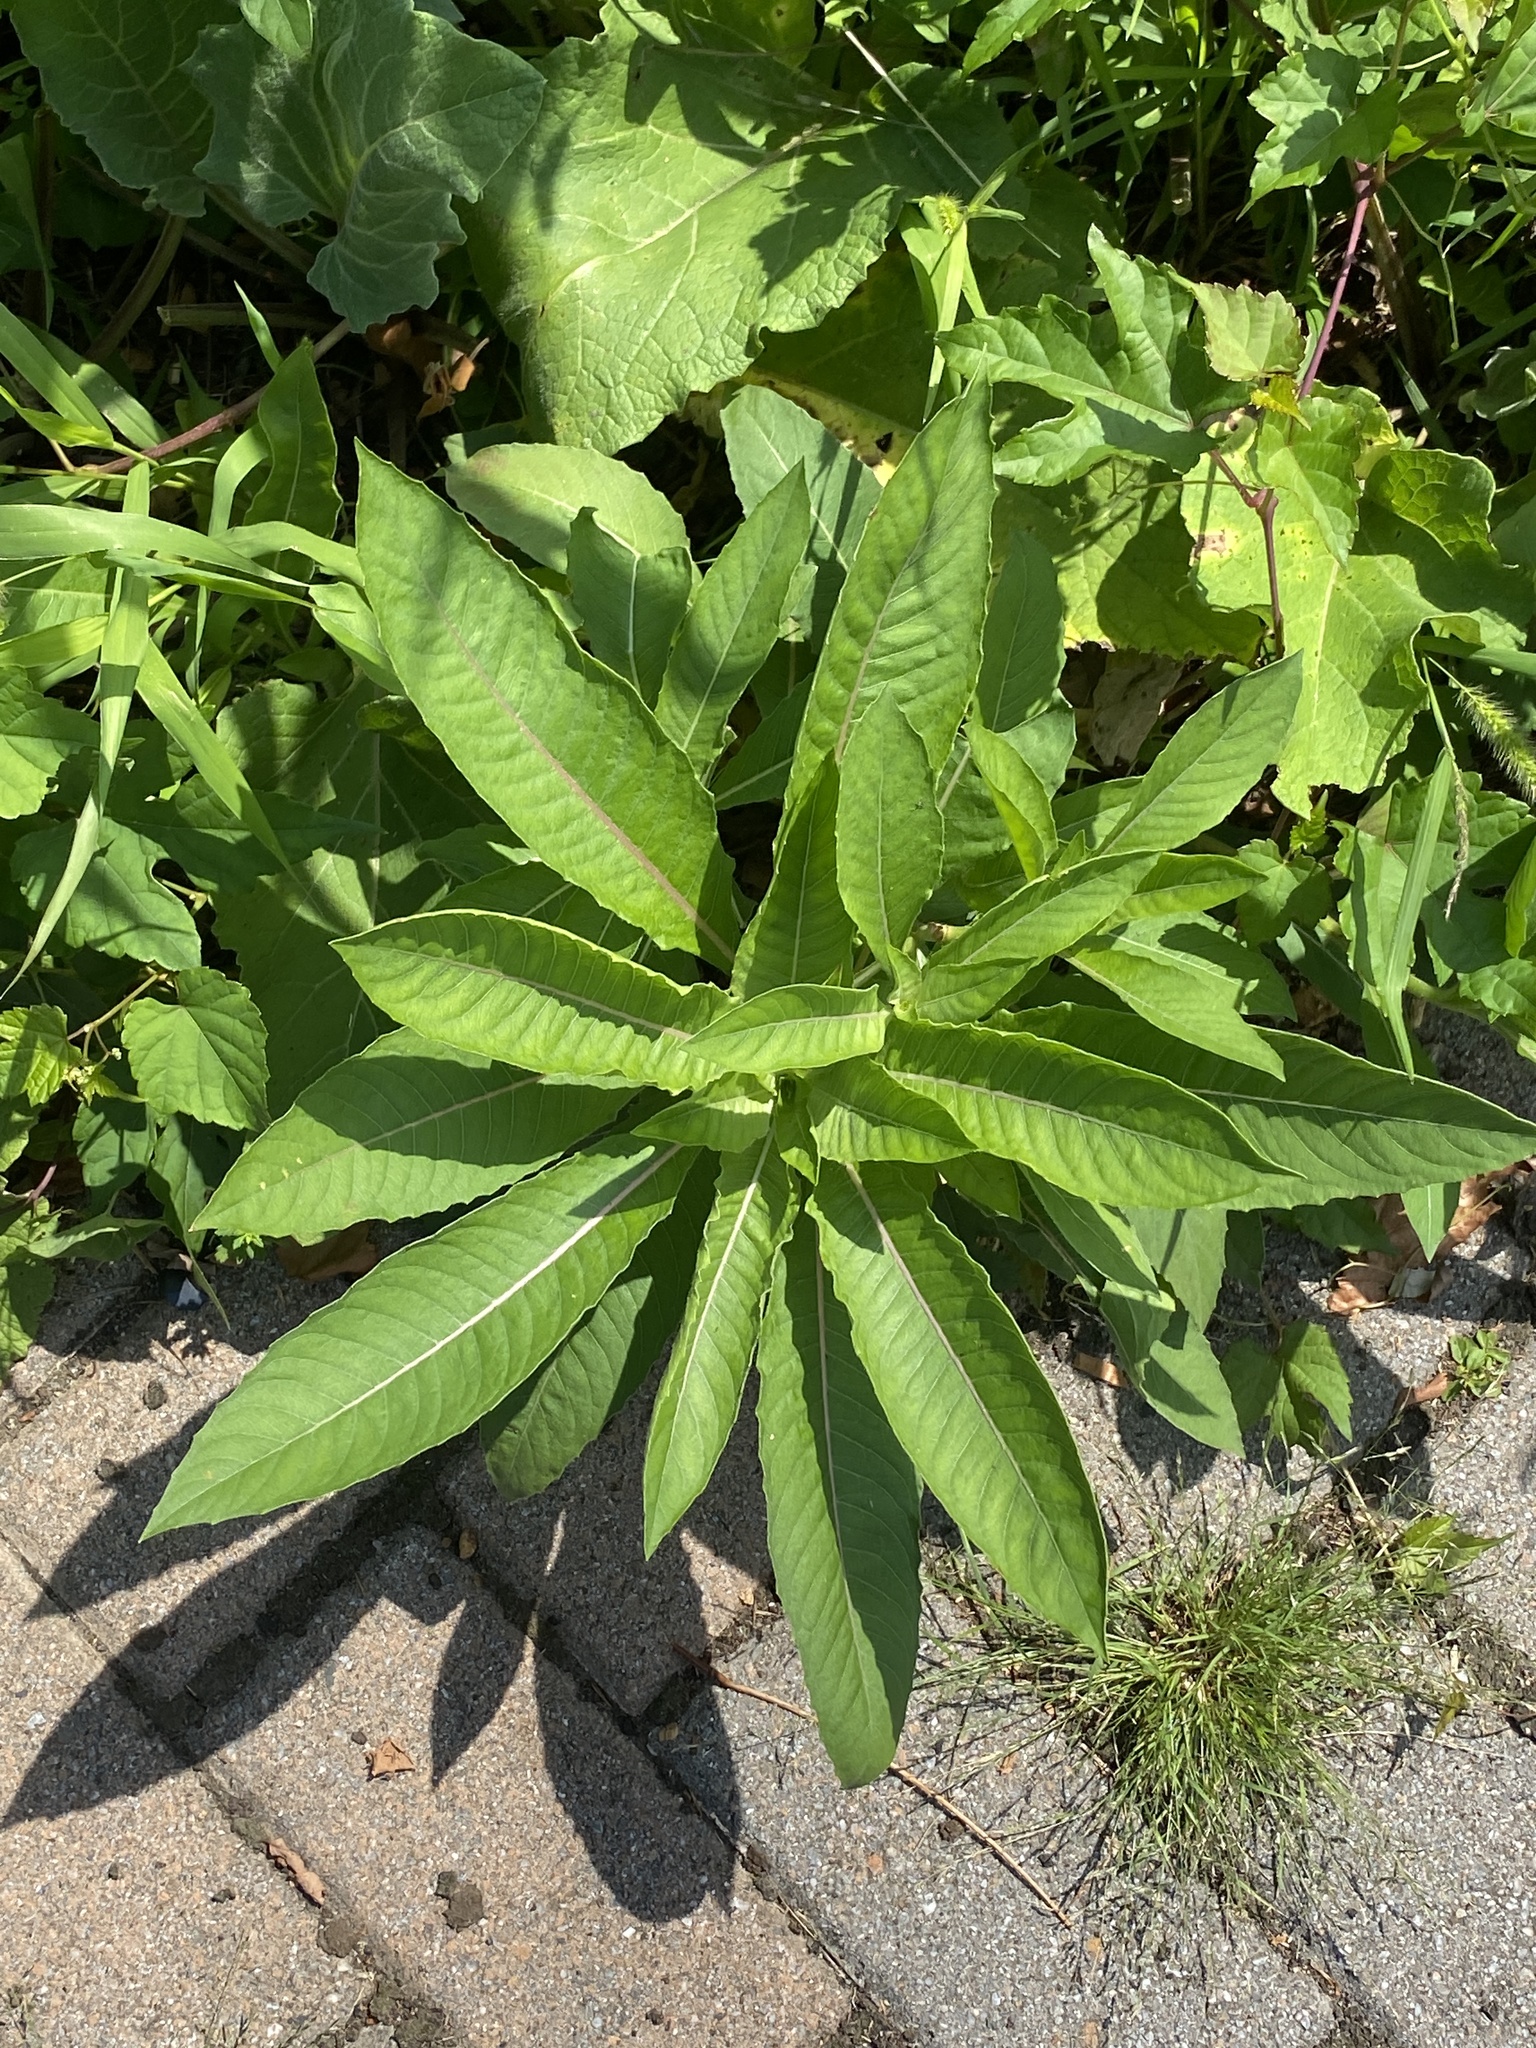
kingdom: Plantae
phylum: Tracheophyta
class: Magnoliopsida
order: Myrtales
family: Onagraceae
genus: Oenothera
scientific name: Oenothera biennis
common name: Common evening-primrose
